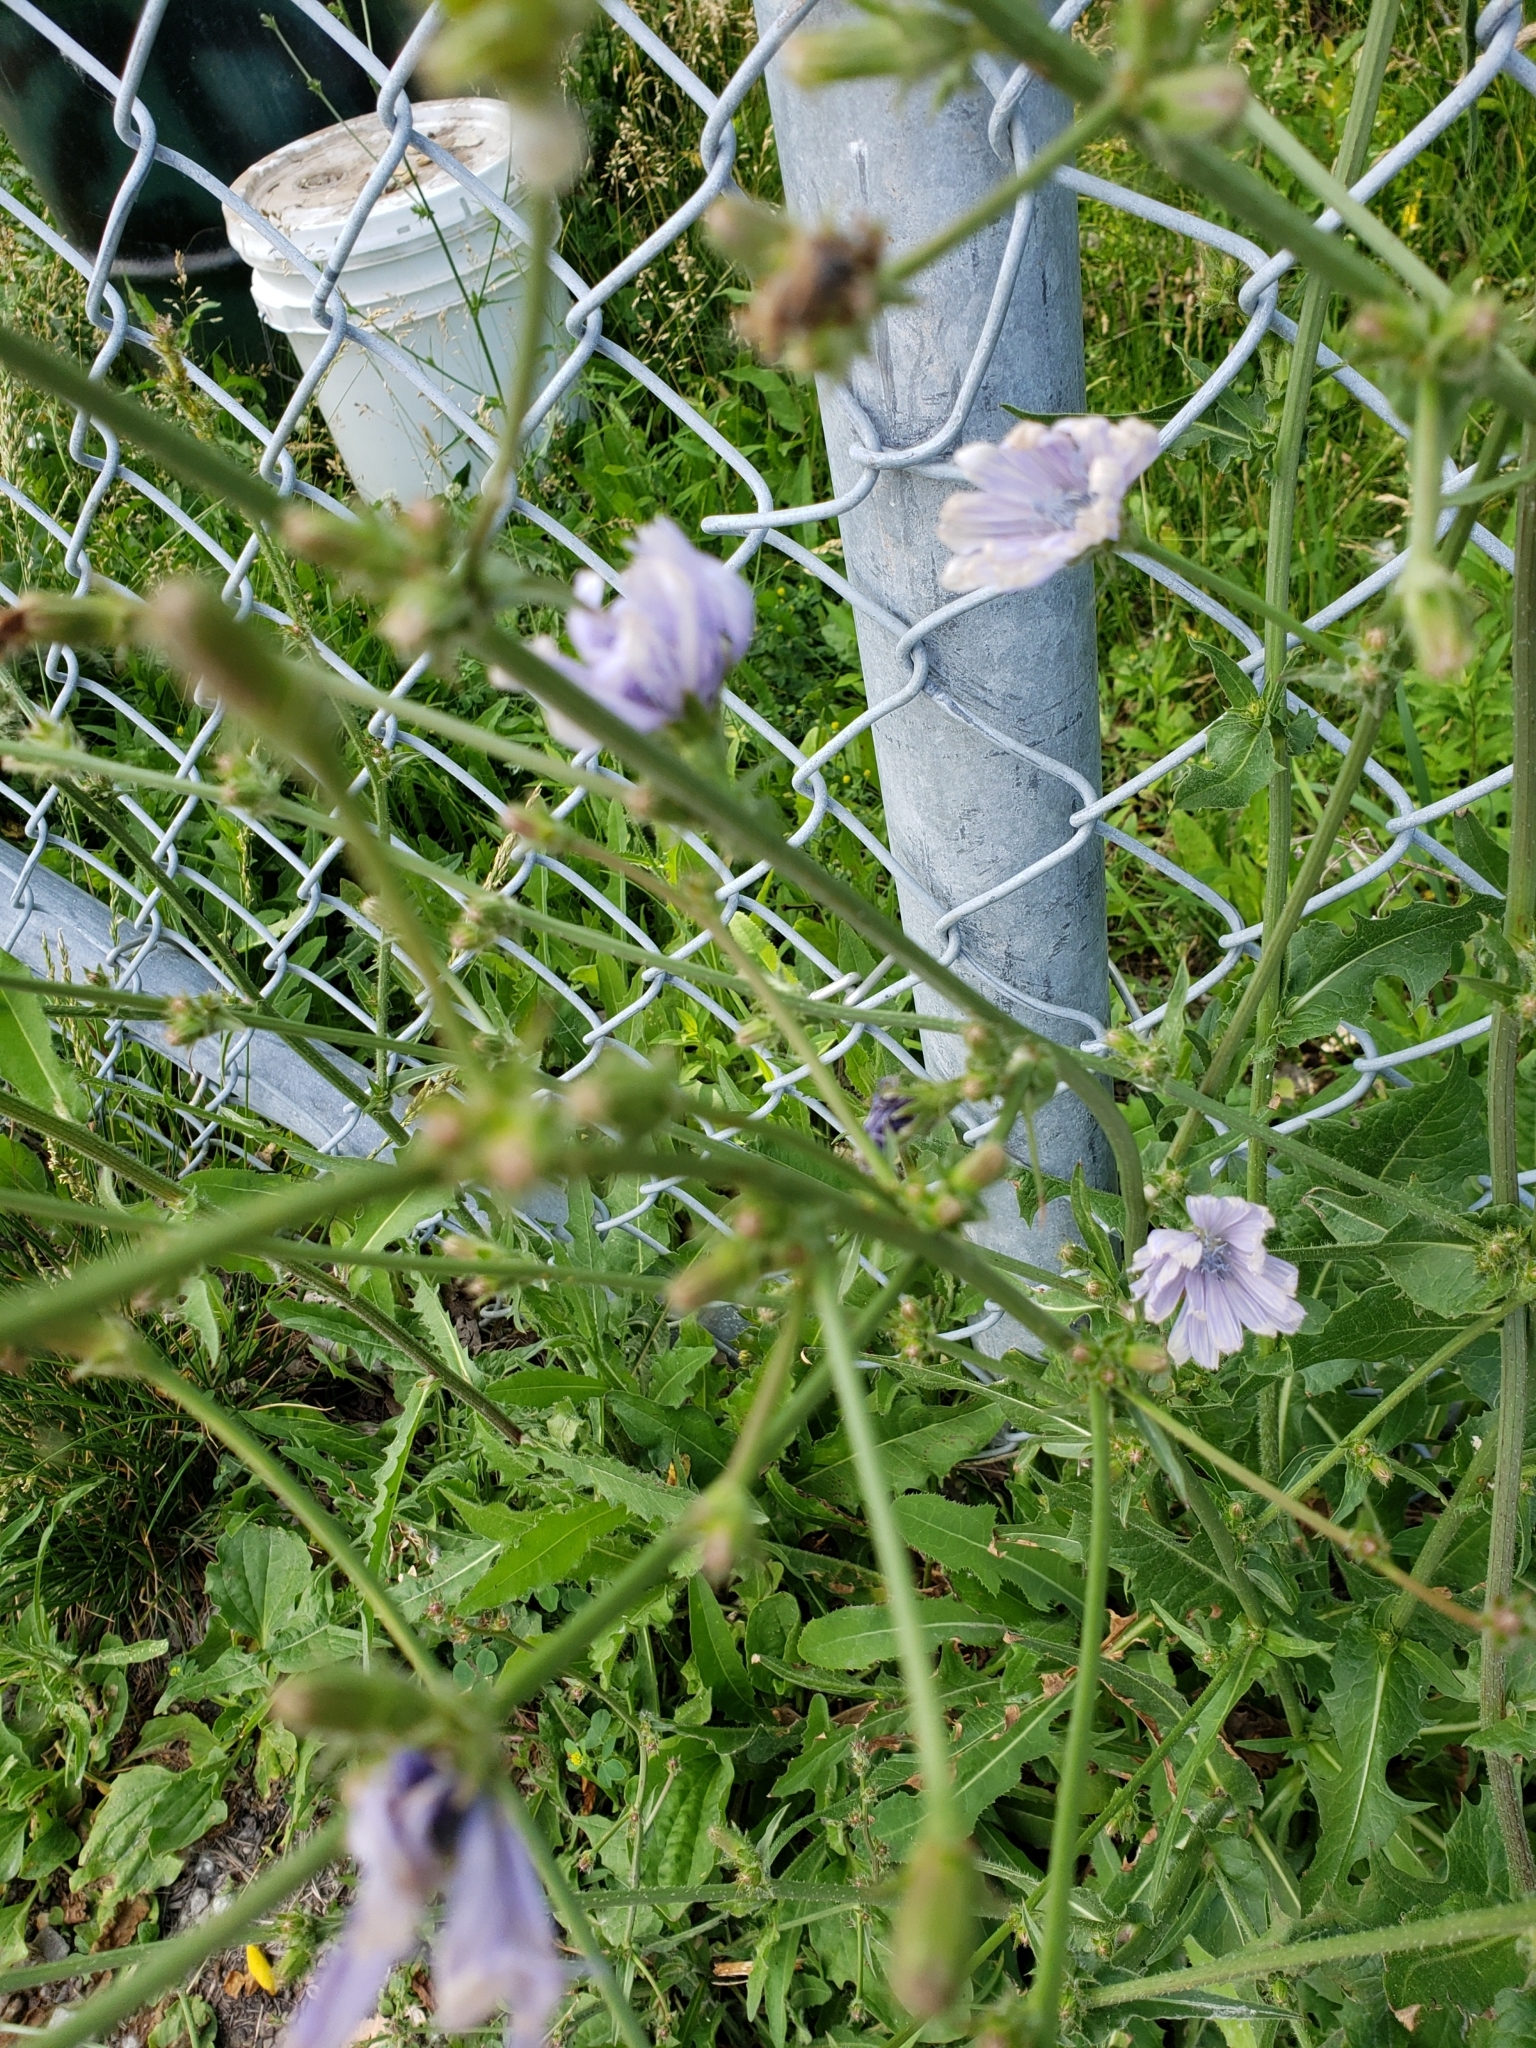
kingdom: Plantae
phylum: Tracheophyta
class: Magnoliopsida
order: Asterales
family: Asteraceae
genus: Cichorium
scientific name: Cichorium intybus
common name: Chicory
